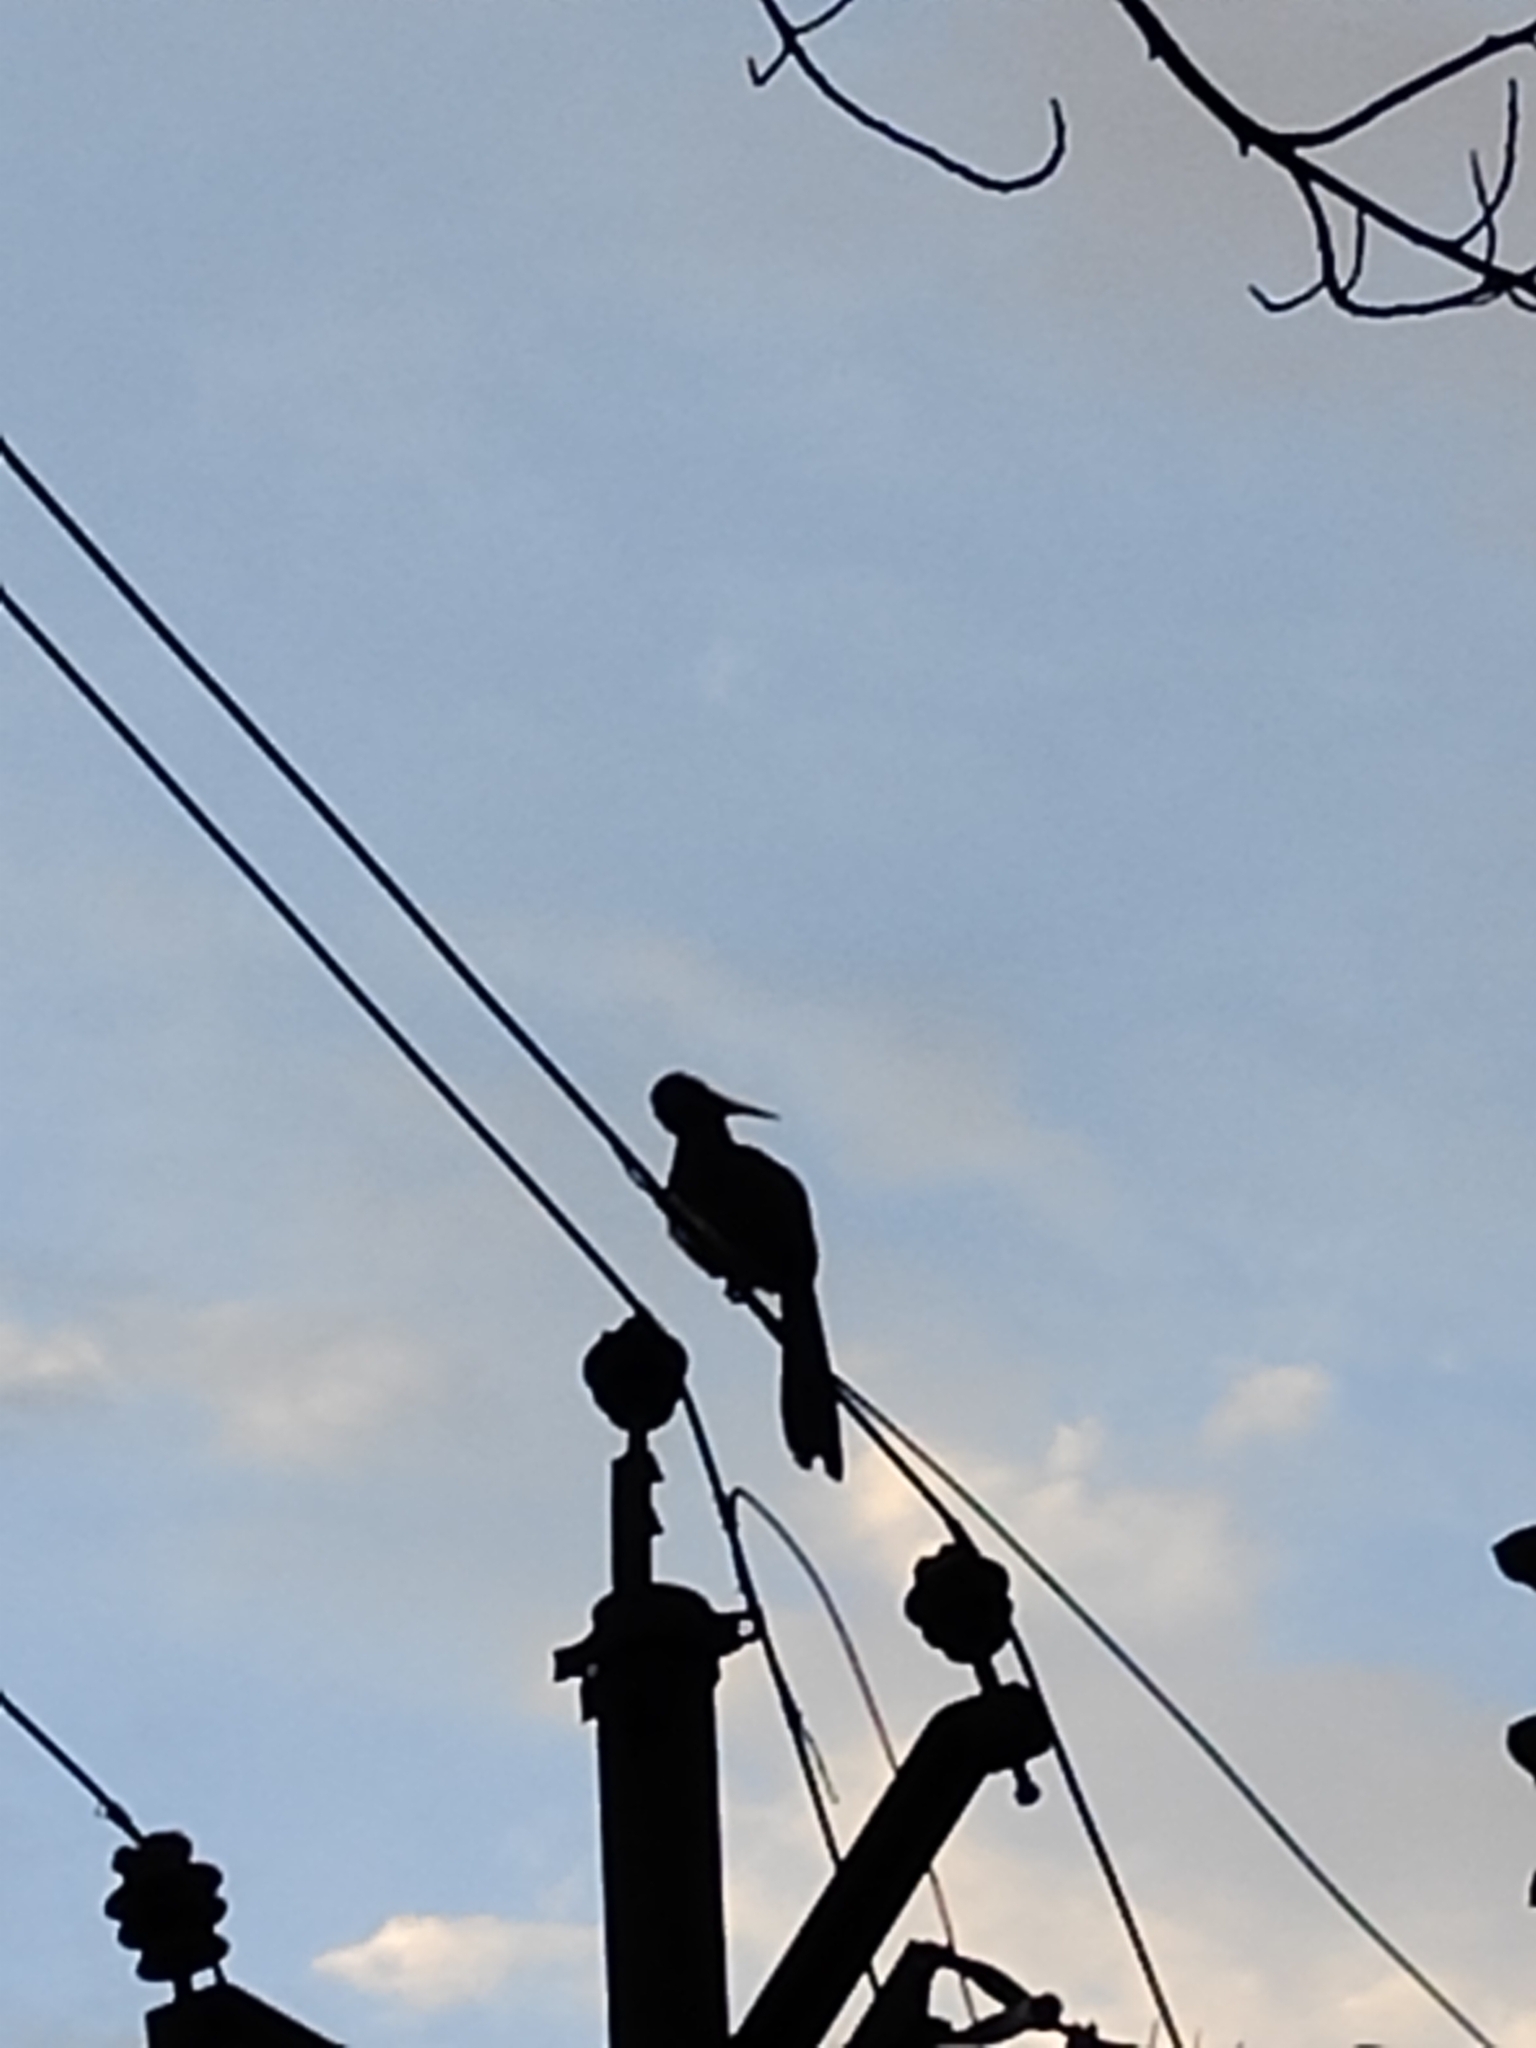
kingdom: Animalia
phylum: Chordata
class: Aves
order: Bucerotiformes
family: Bucerotidae
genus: Anthracoceros
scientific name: Anthracoceros albirostris
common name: Oriental pied-hornbill
